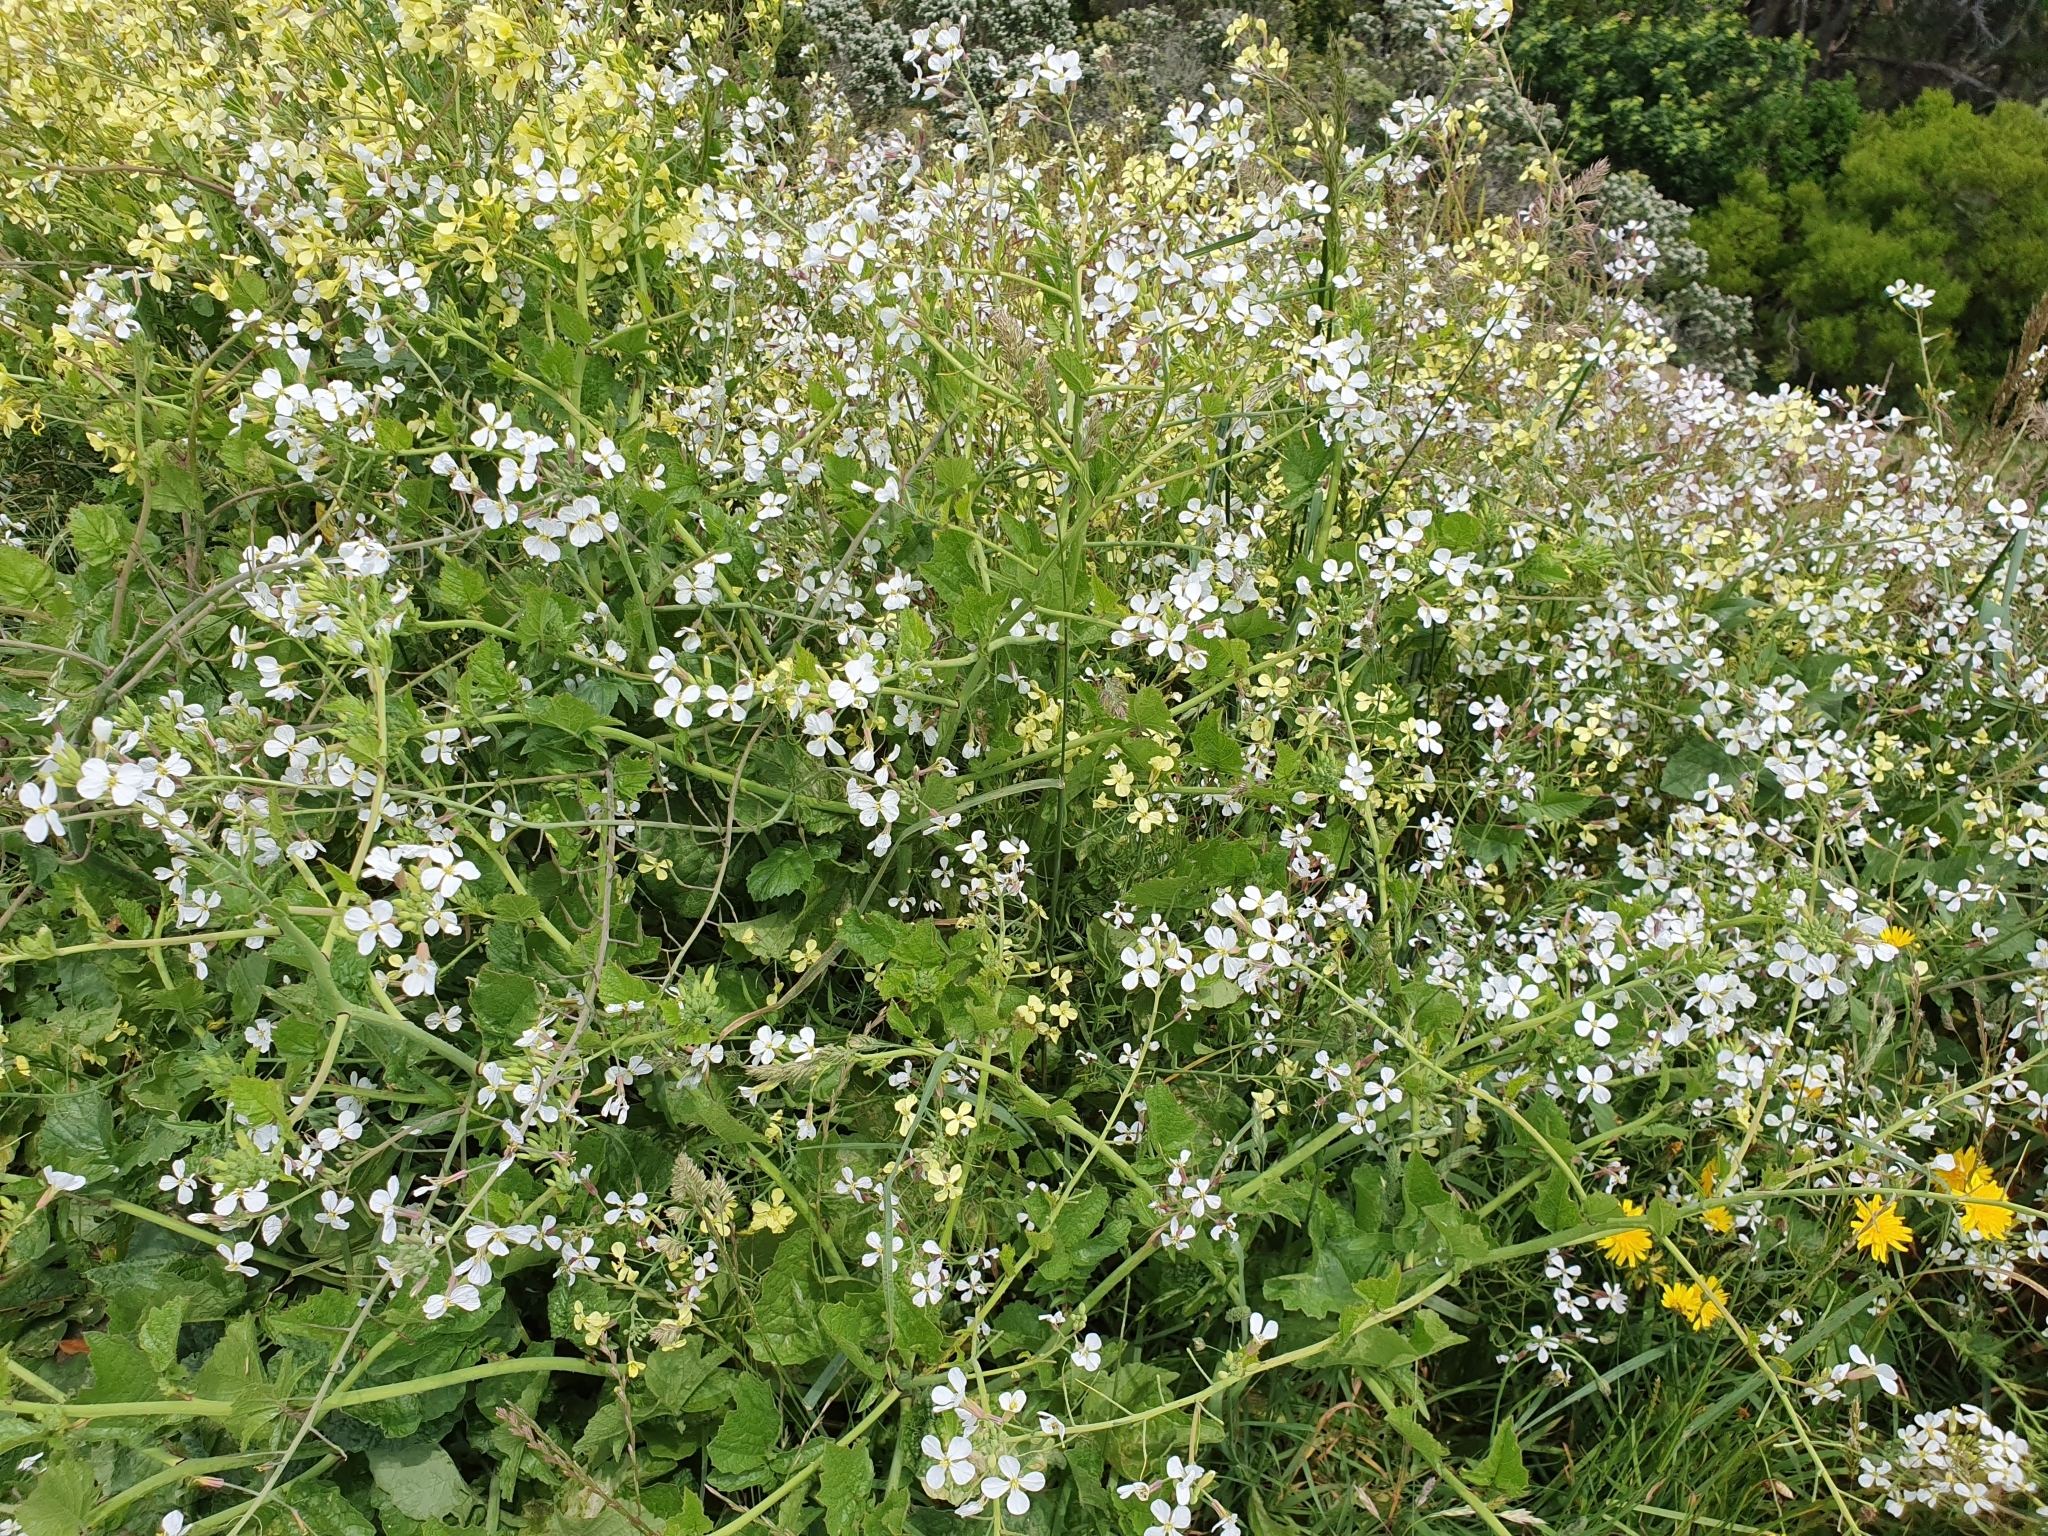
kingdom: Plantae
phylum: Tracheophyta
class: Magnoliopsida
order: Brassicales
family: Brassicaceae
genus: Raphanus
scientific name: Raphanus raphanistrum
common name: Wild radish
